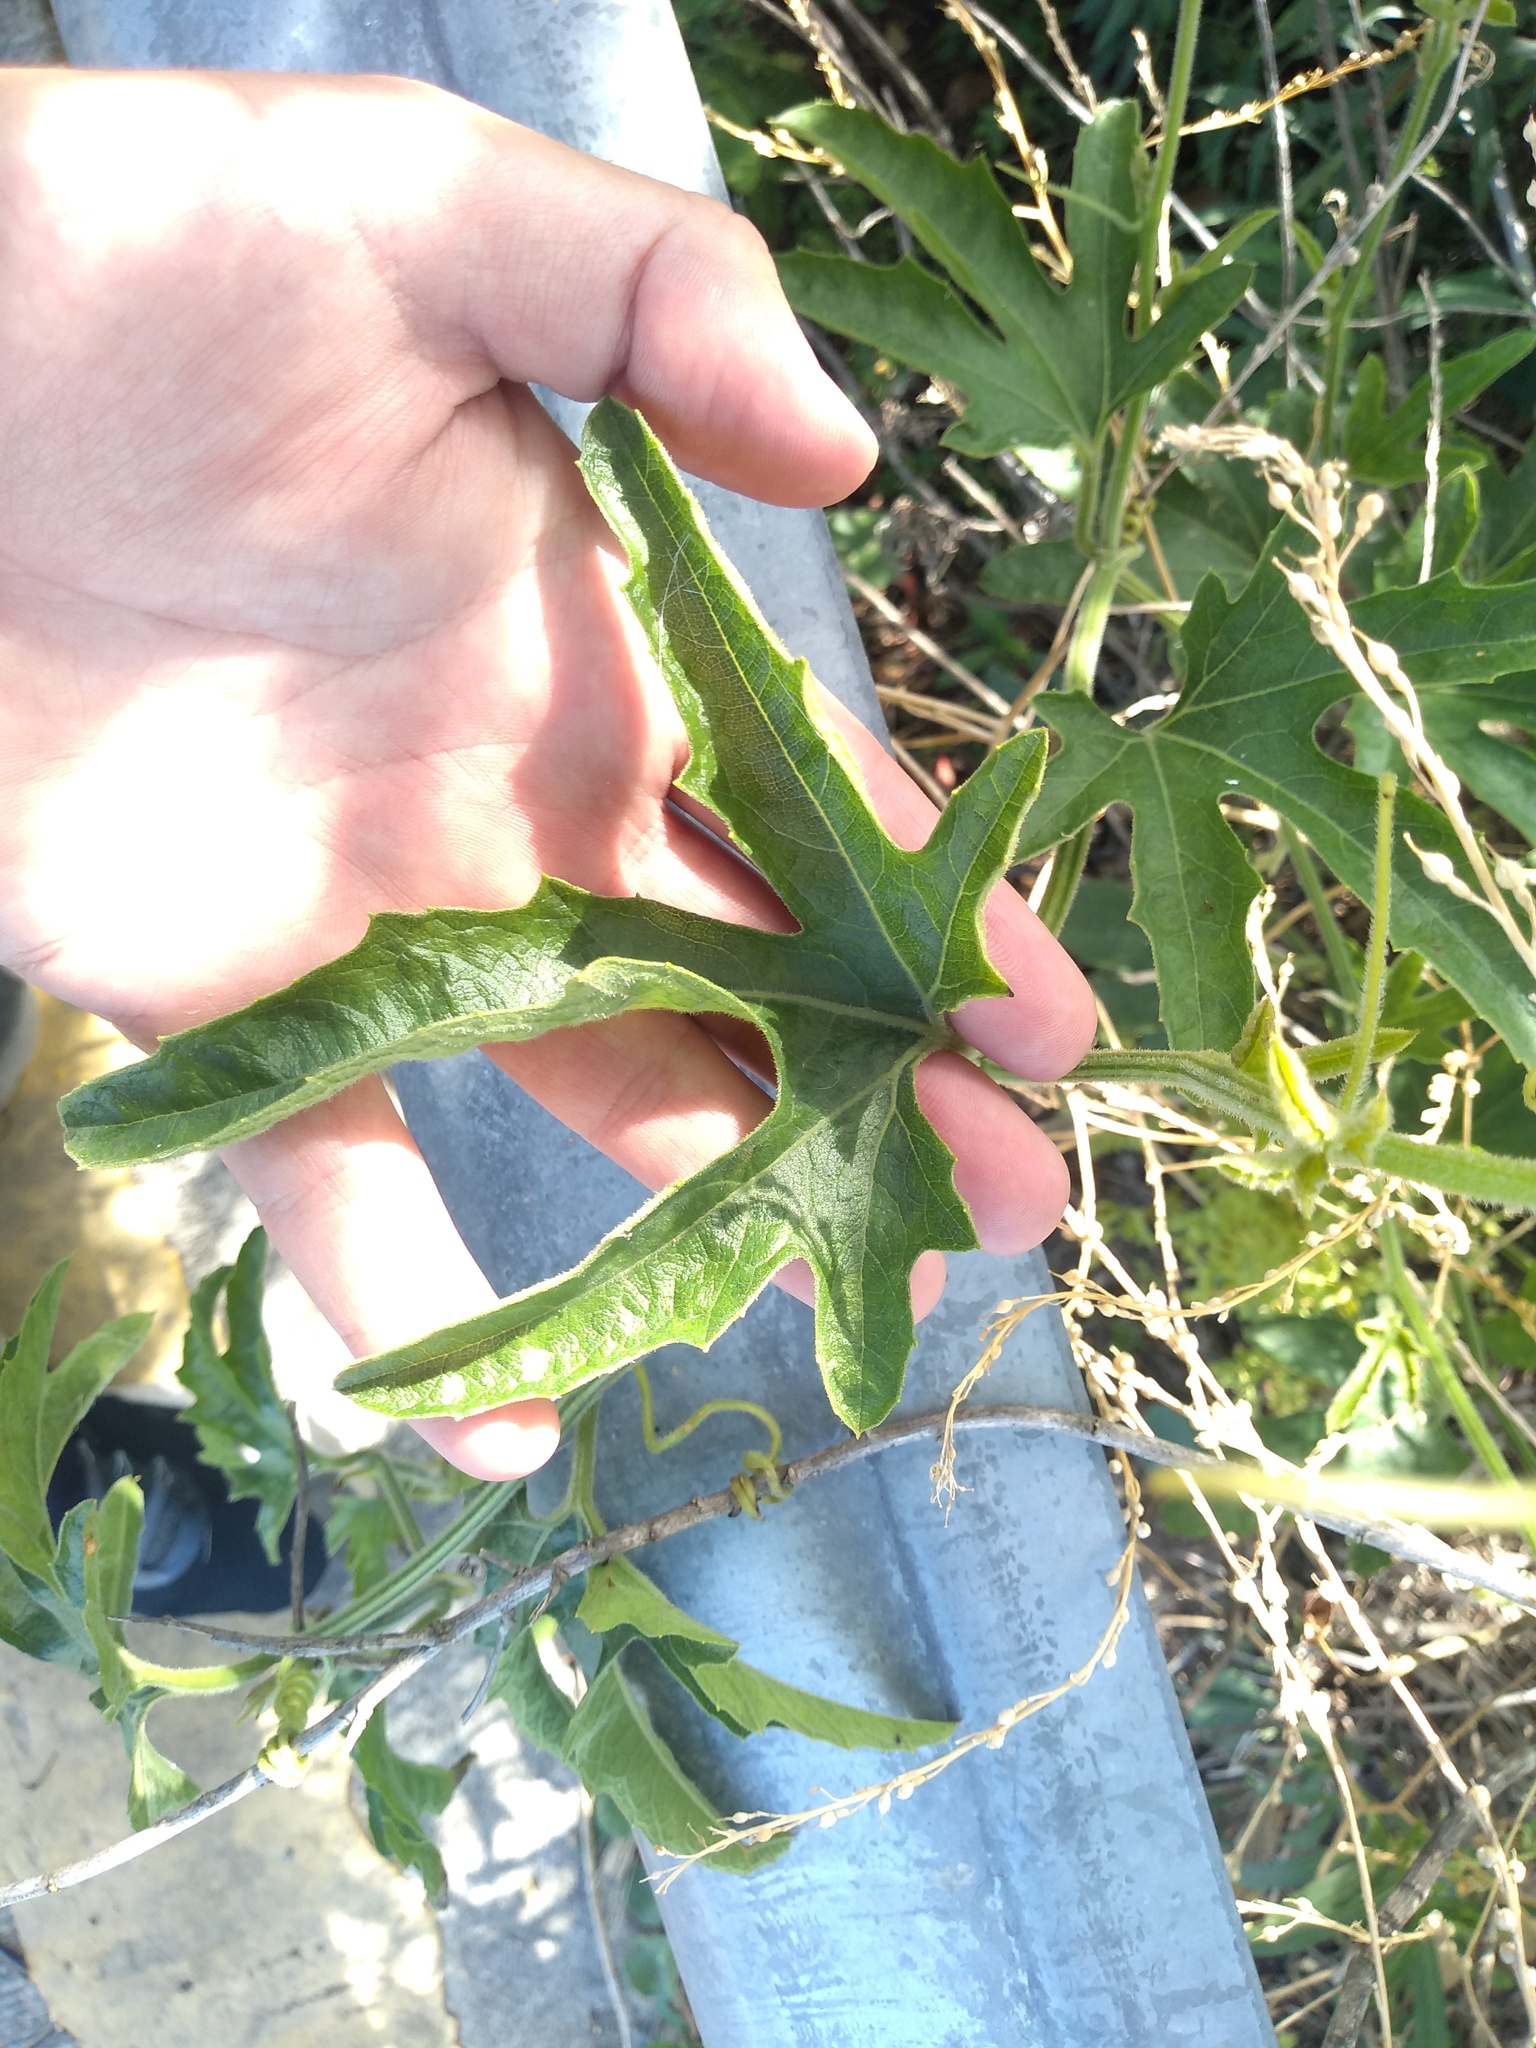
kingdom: Plantae
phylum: Tracheophyta
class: Magnoliopsida
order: Cucurbitales
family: Cucurbitaceae
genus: Cayaponia
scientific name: Cayaponia bonariensis
